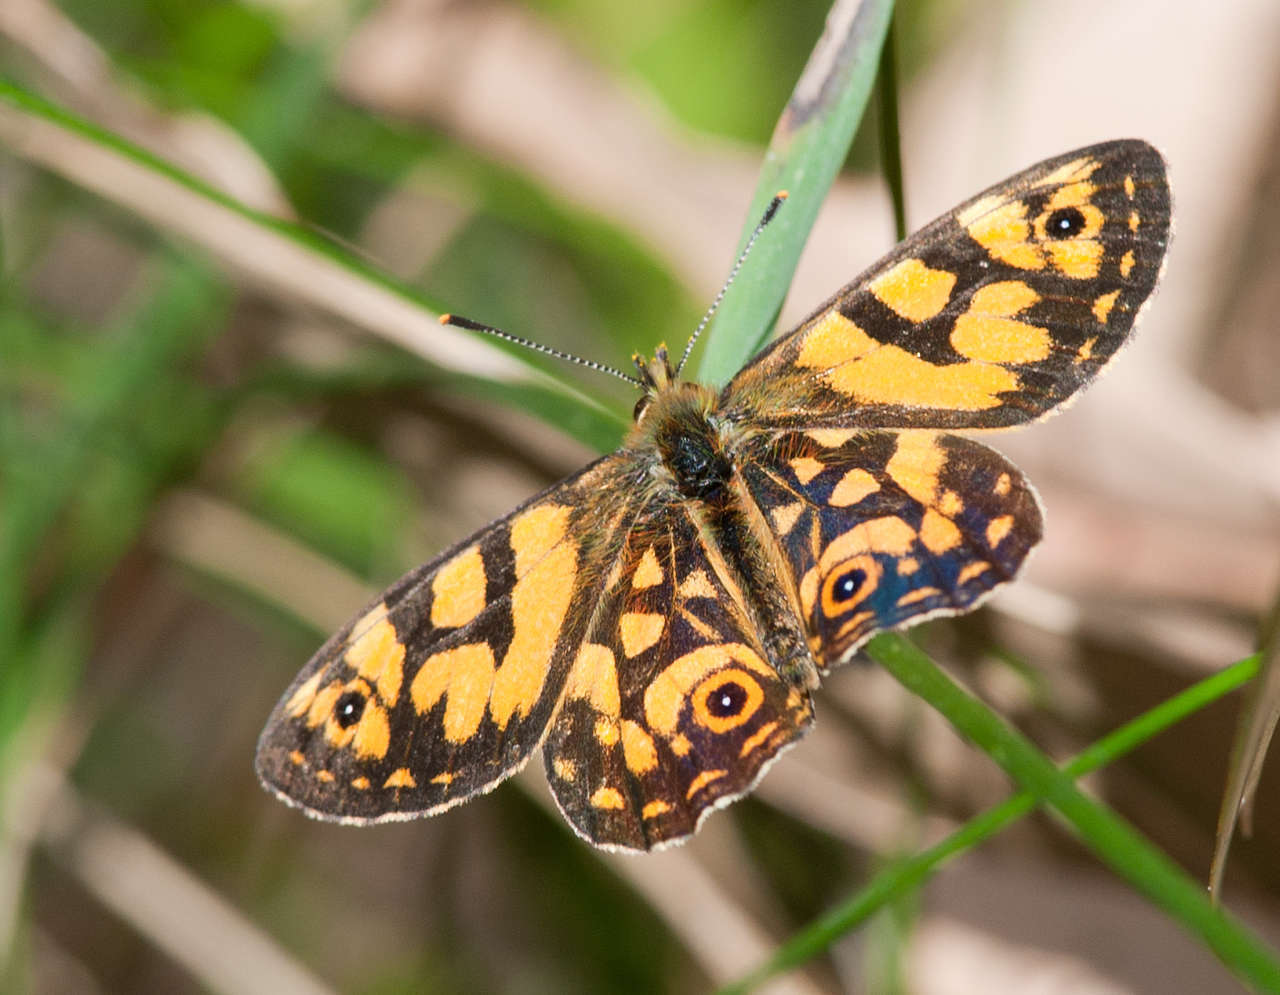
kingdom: Animalia
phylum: Arthropoda
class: Insecta
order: Lepidoptera
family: Nymphalidae
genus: Oreixenica
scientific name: Oreixenica lathoniella
